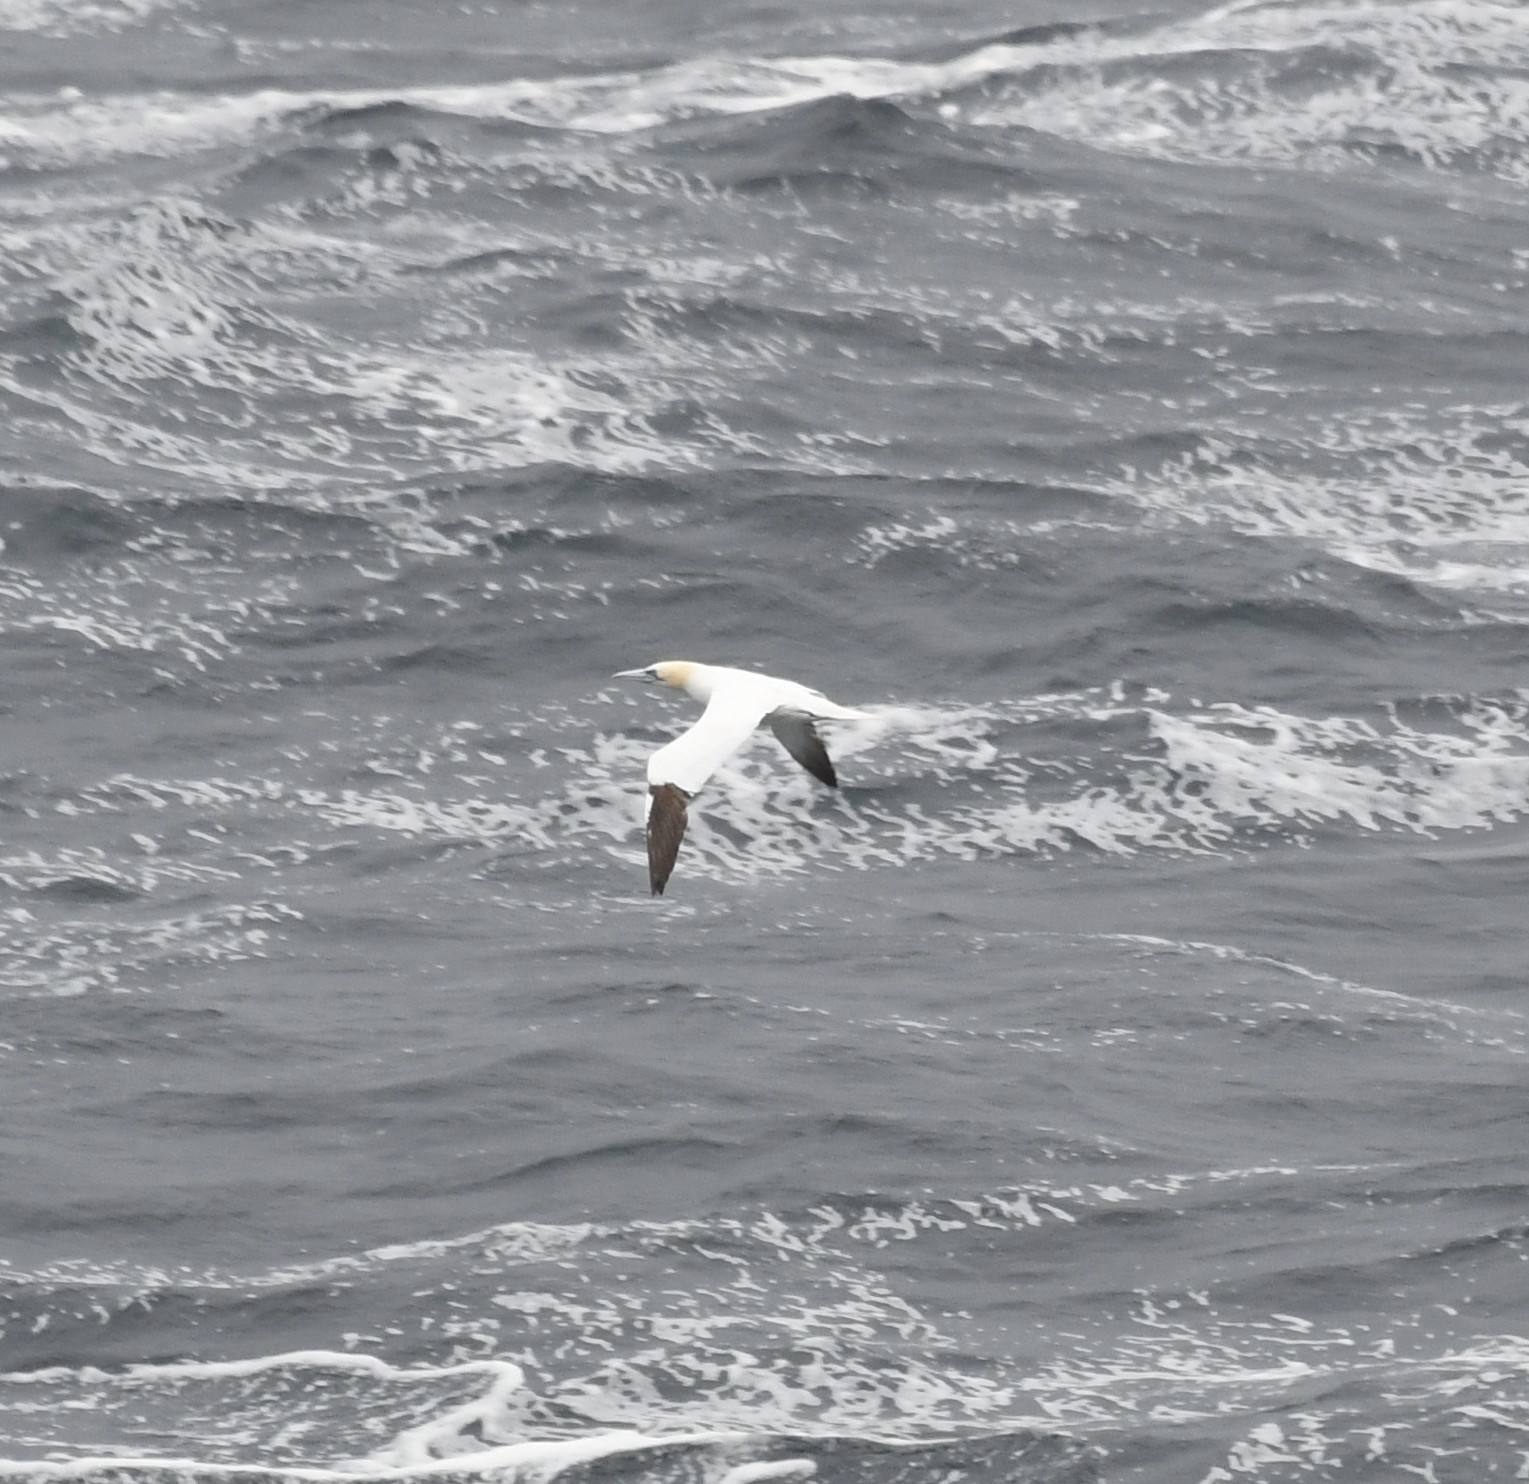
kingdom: Animalia
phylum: Chordata
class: Aves
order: Suliformes
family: Sulidae
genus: Morus
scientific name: Morus bassanus
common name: Northern gannet
